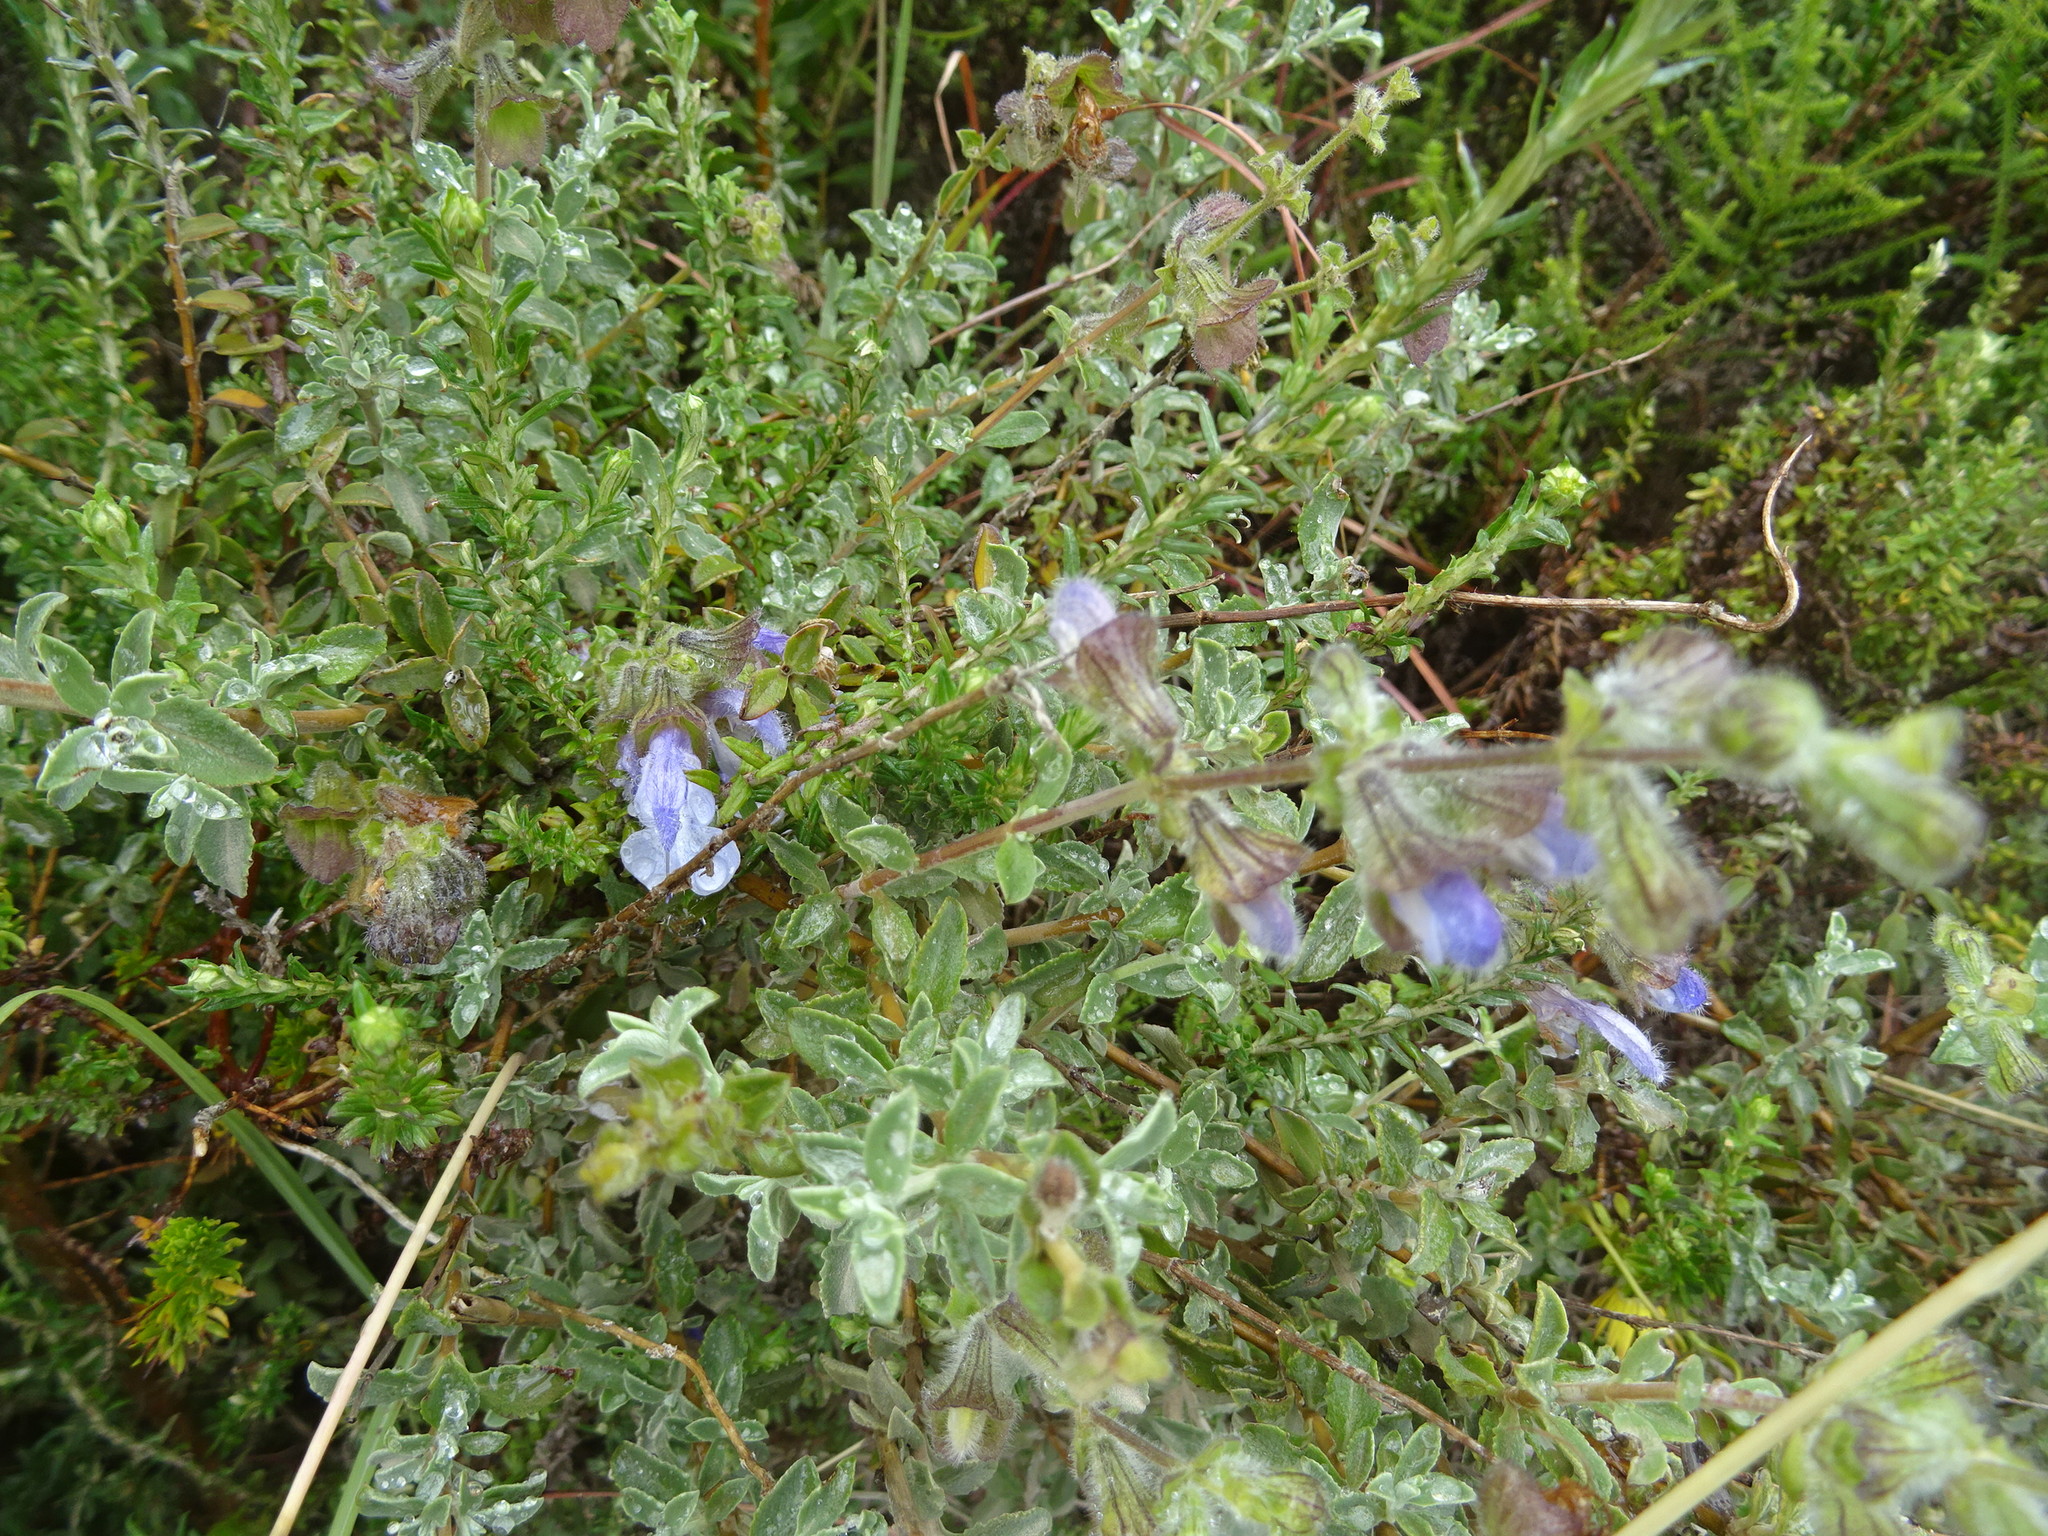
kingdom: Plantae
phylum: Tracheophyta
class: Magnoliopsida
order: Lamiales
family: Lamiaceae
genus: Salvia
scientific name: Salvia africana
